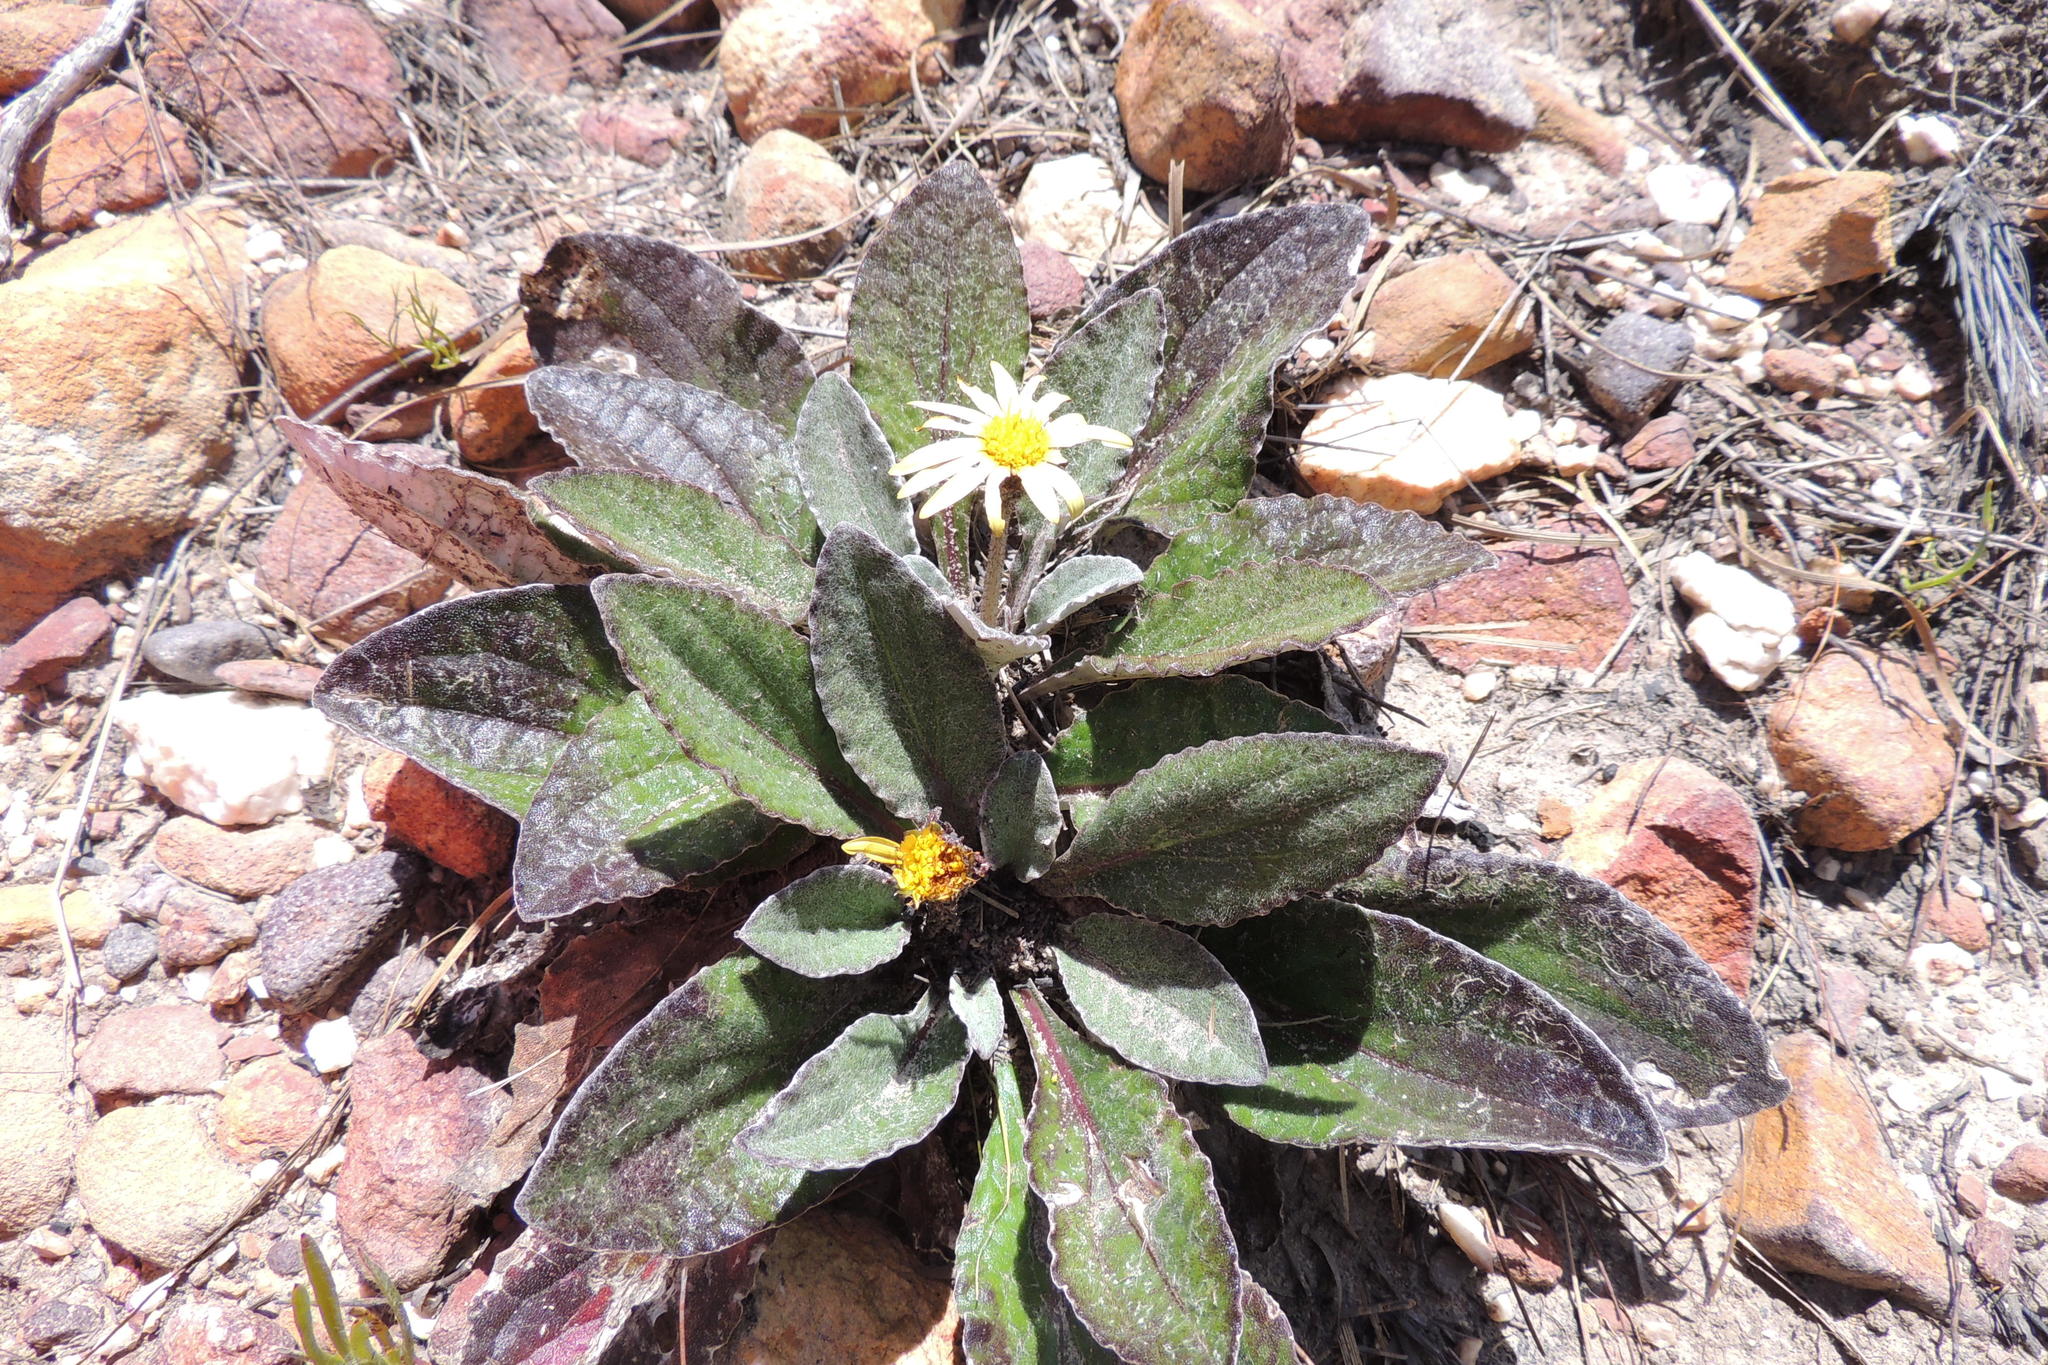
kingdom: Plantae
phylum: Tracheophyta
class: Magnoliopsida
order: Asterales
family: Asteraceae
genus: Haplocarpha
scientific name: Haplocarpha lanata
